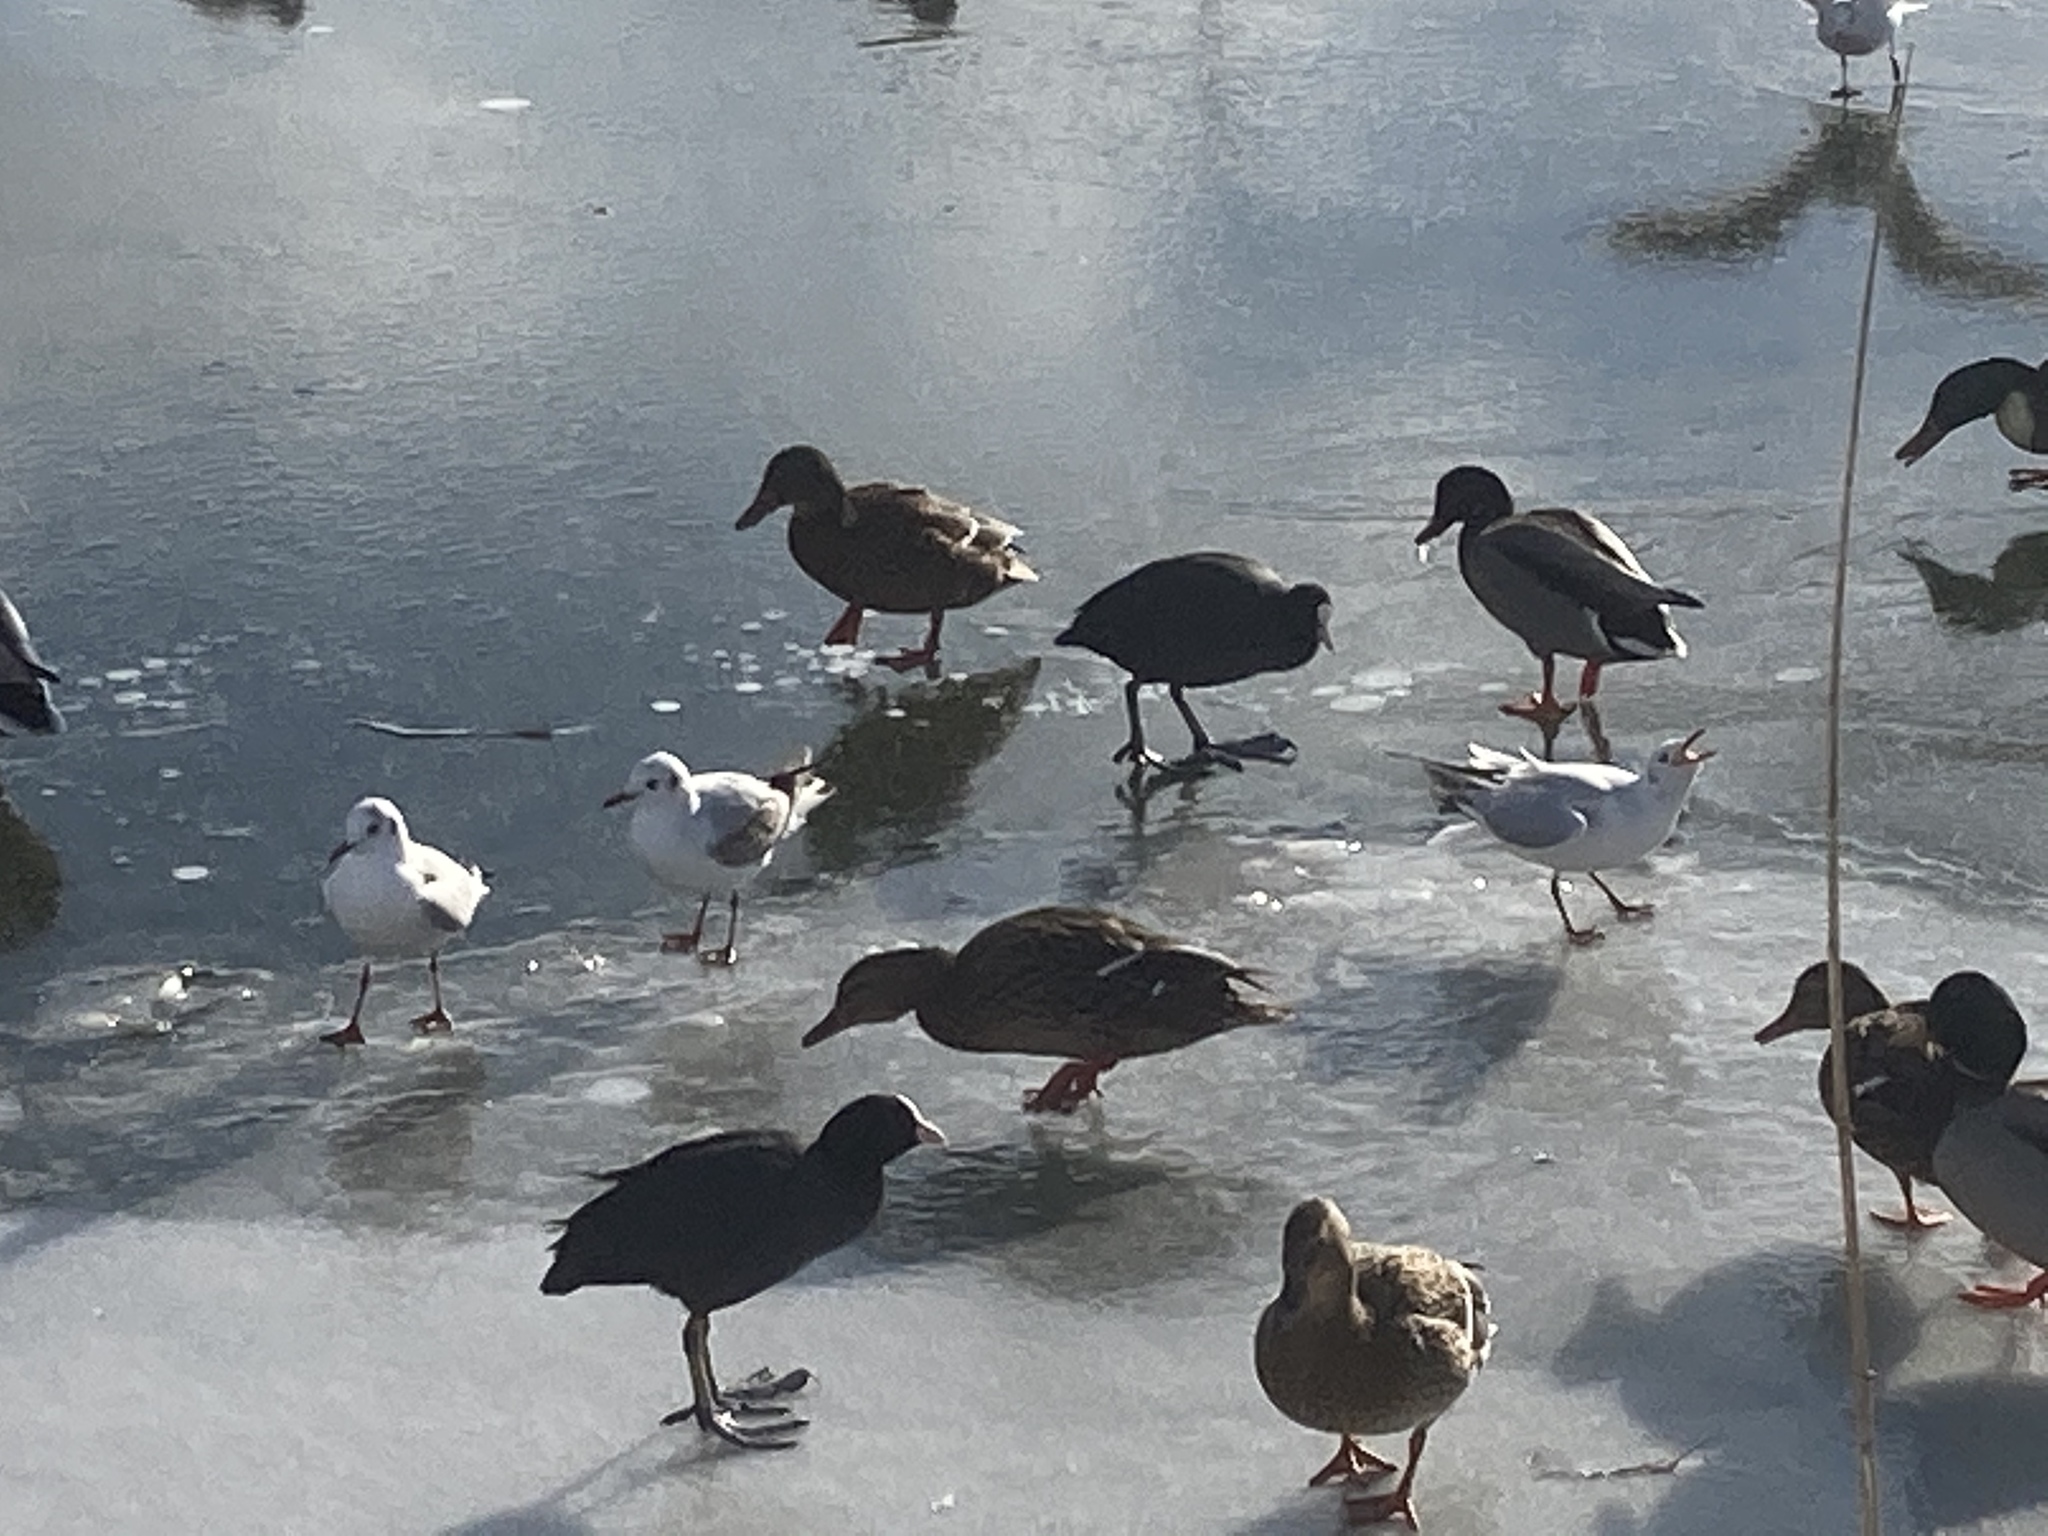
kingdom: Animalia
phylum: Chordata
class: Aves
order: Anseriformes
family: Anatidae
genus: Anas
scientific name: Anas platyrhynchos
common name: Mallard
